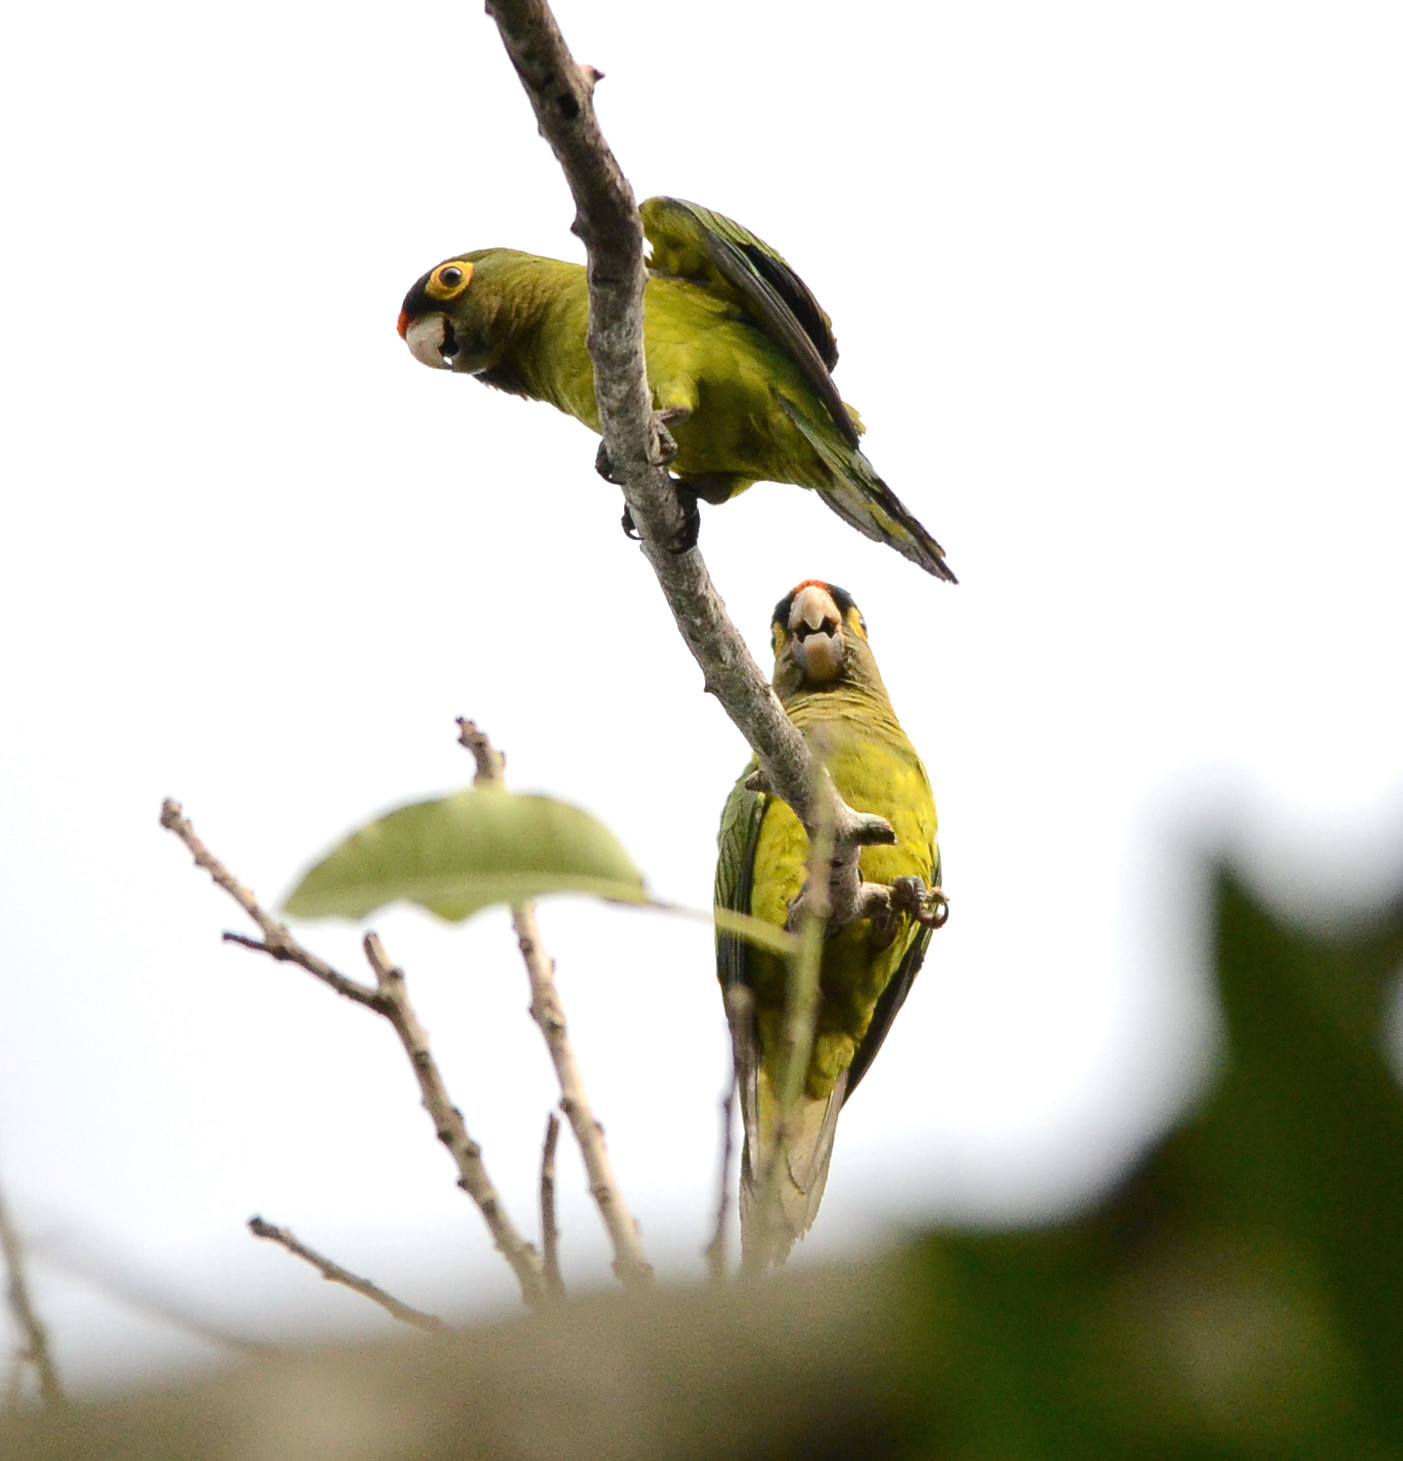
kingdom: Animalia
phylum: Chordata
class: Aves
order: Psittaciformes
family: Psittacidae
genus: Aratinga
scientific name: Aratinga canicularis
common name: Orange-fronted parakeet
